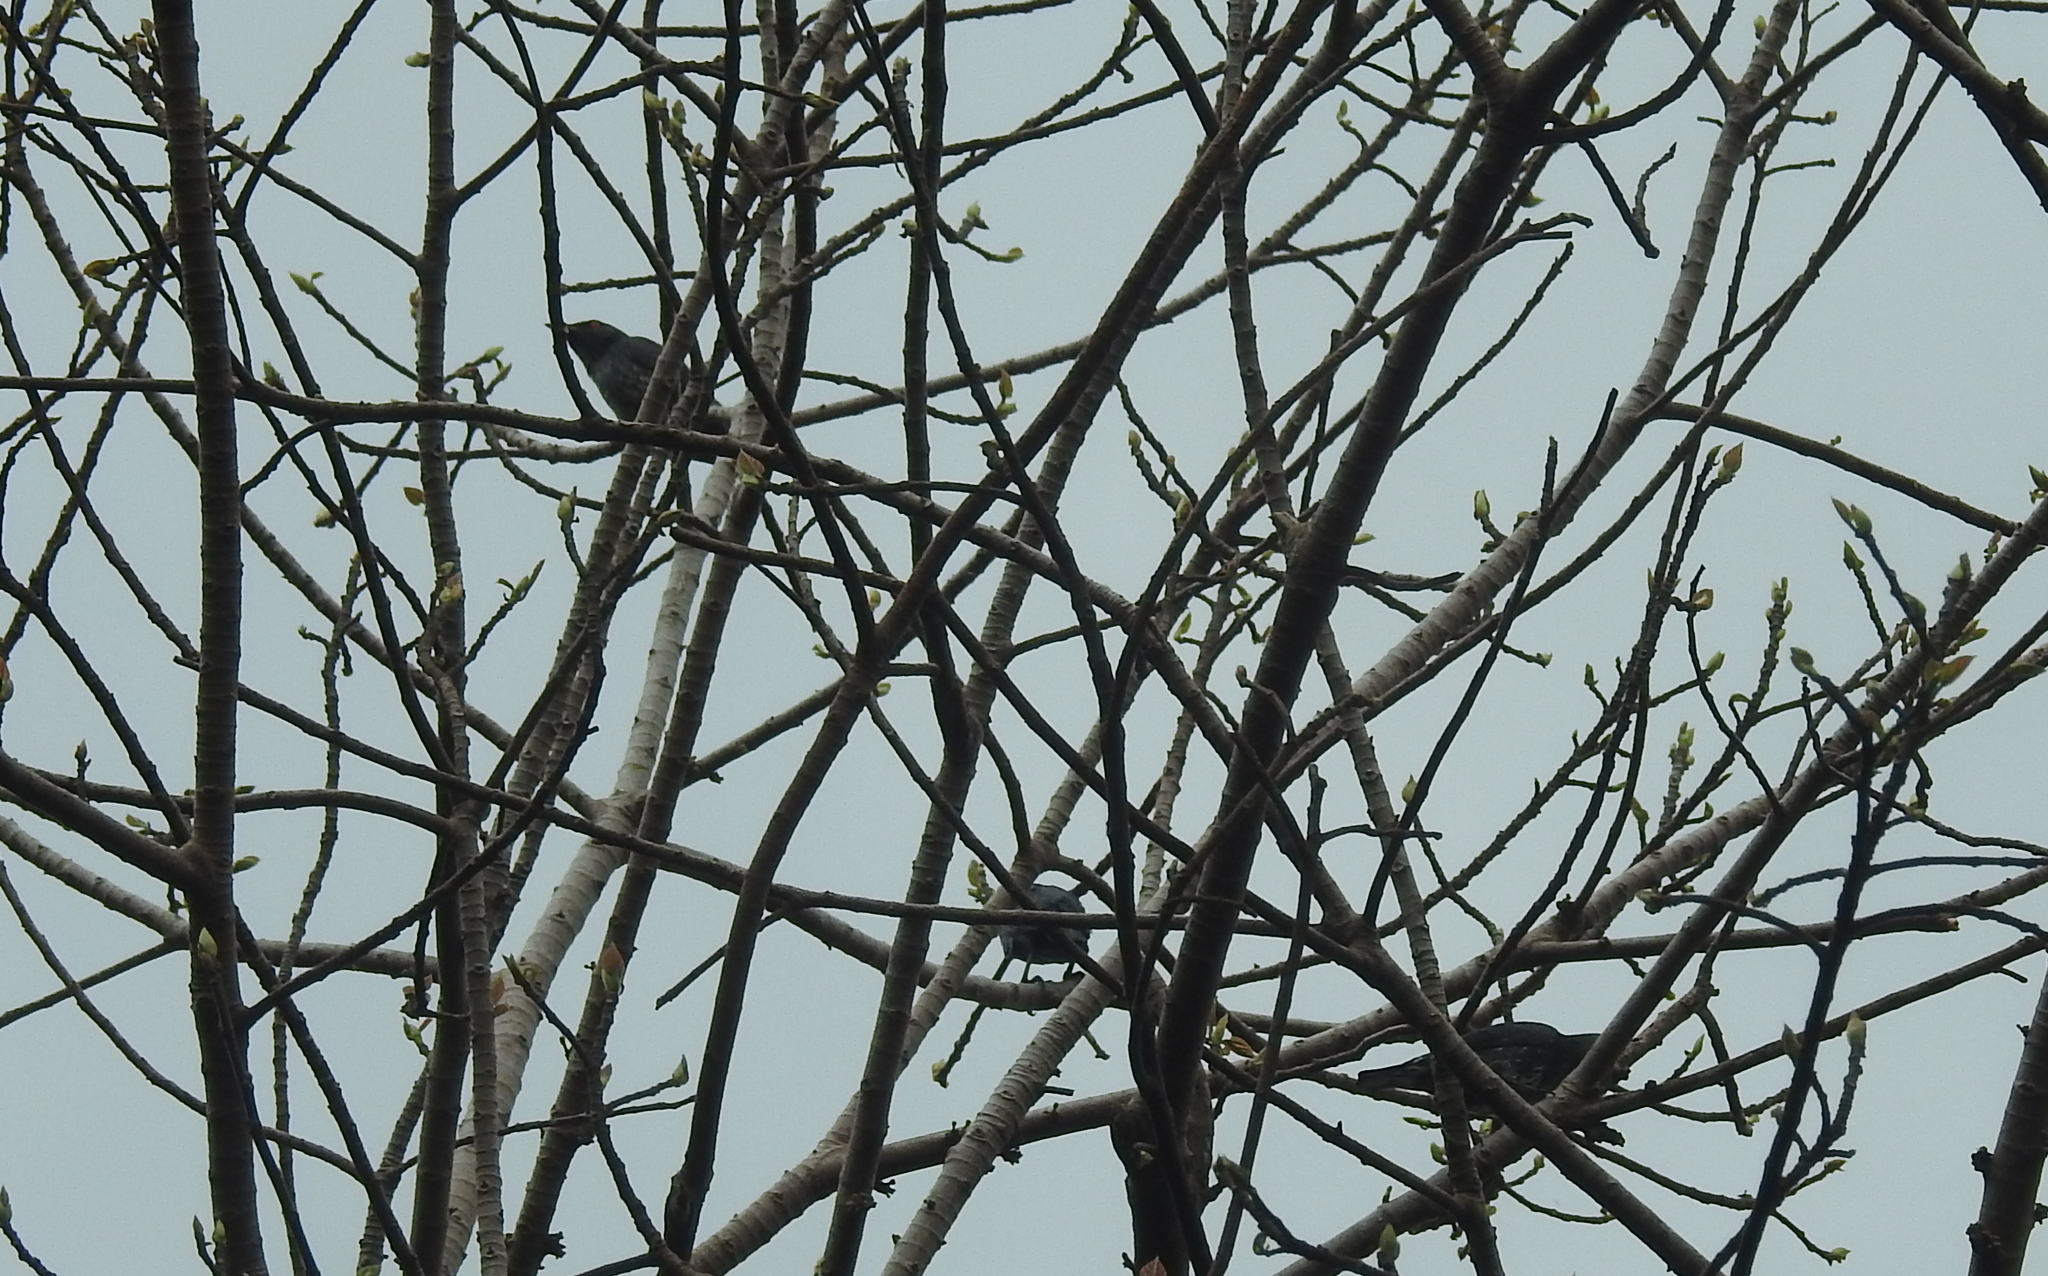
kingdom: Animalia
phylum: Chordata
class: Aves
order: Passeriformes
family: Sturnidae
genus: Aplonis
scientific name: Aplonis panayensis
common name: Asian glossy starling
